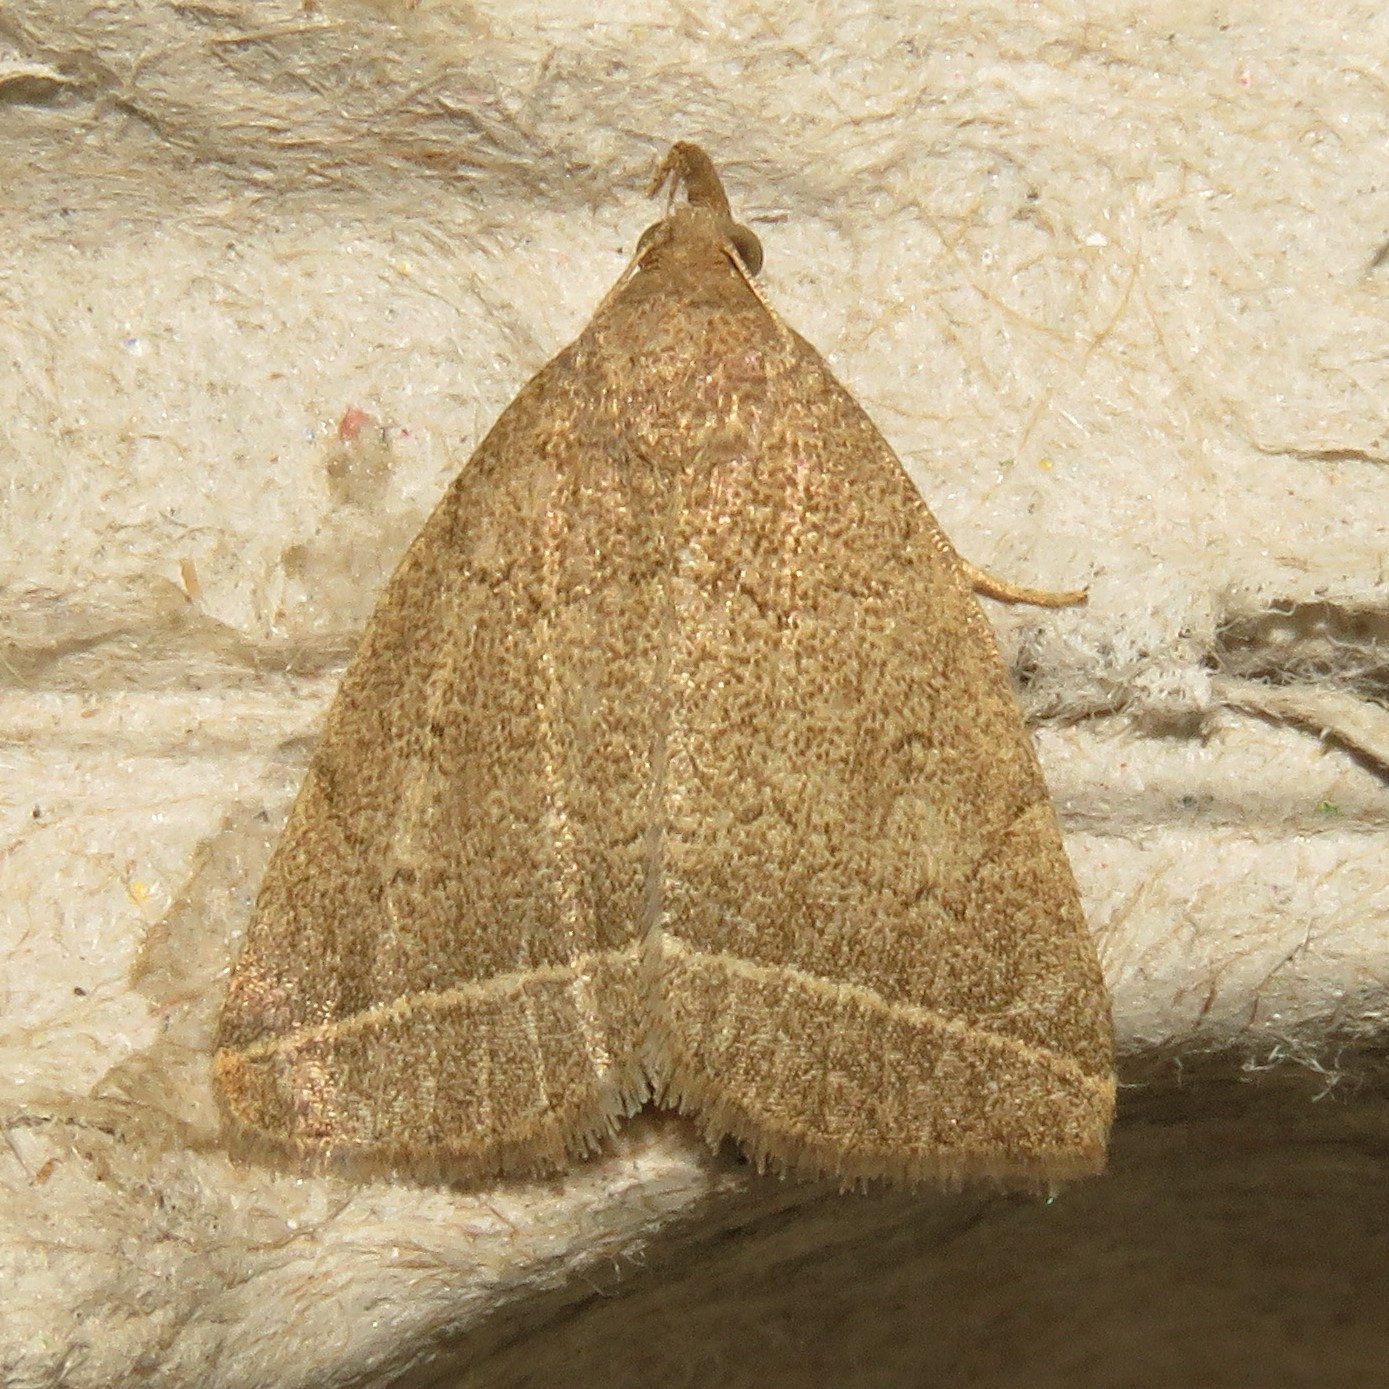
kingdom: Animalia
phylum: Arthropoda
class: Insecta
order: Lepidoptera
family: Erebidae
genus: Zanclognatha
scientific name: Zanclognatha marcidilinea
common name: Yellowish fan-foot
